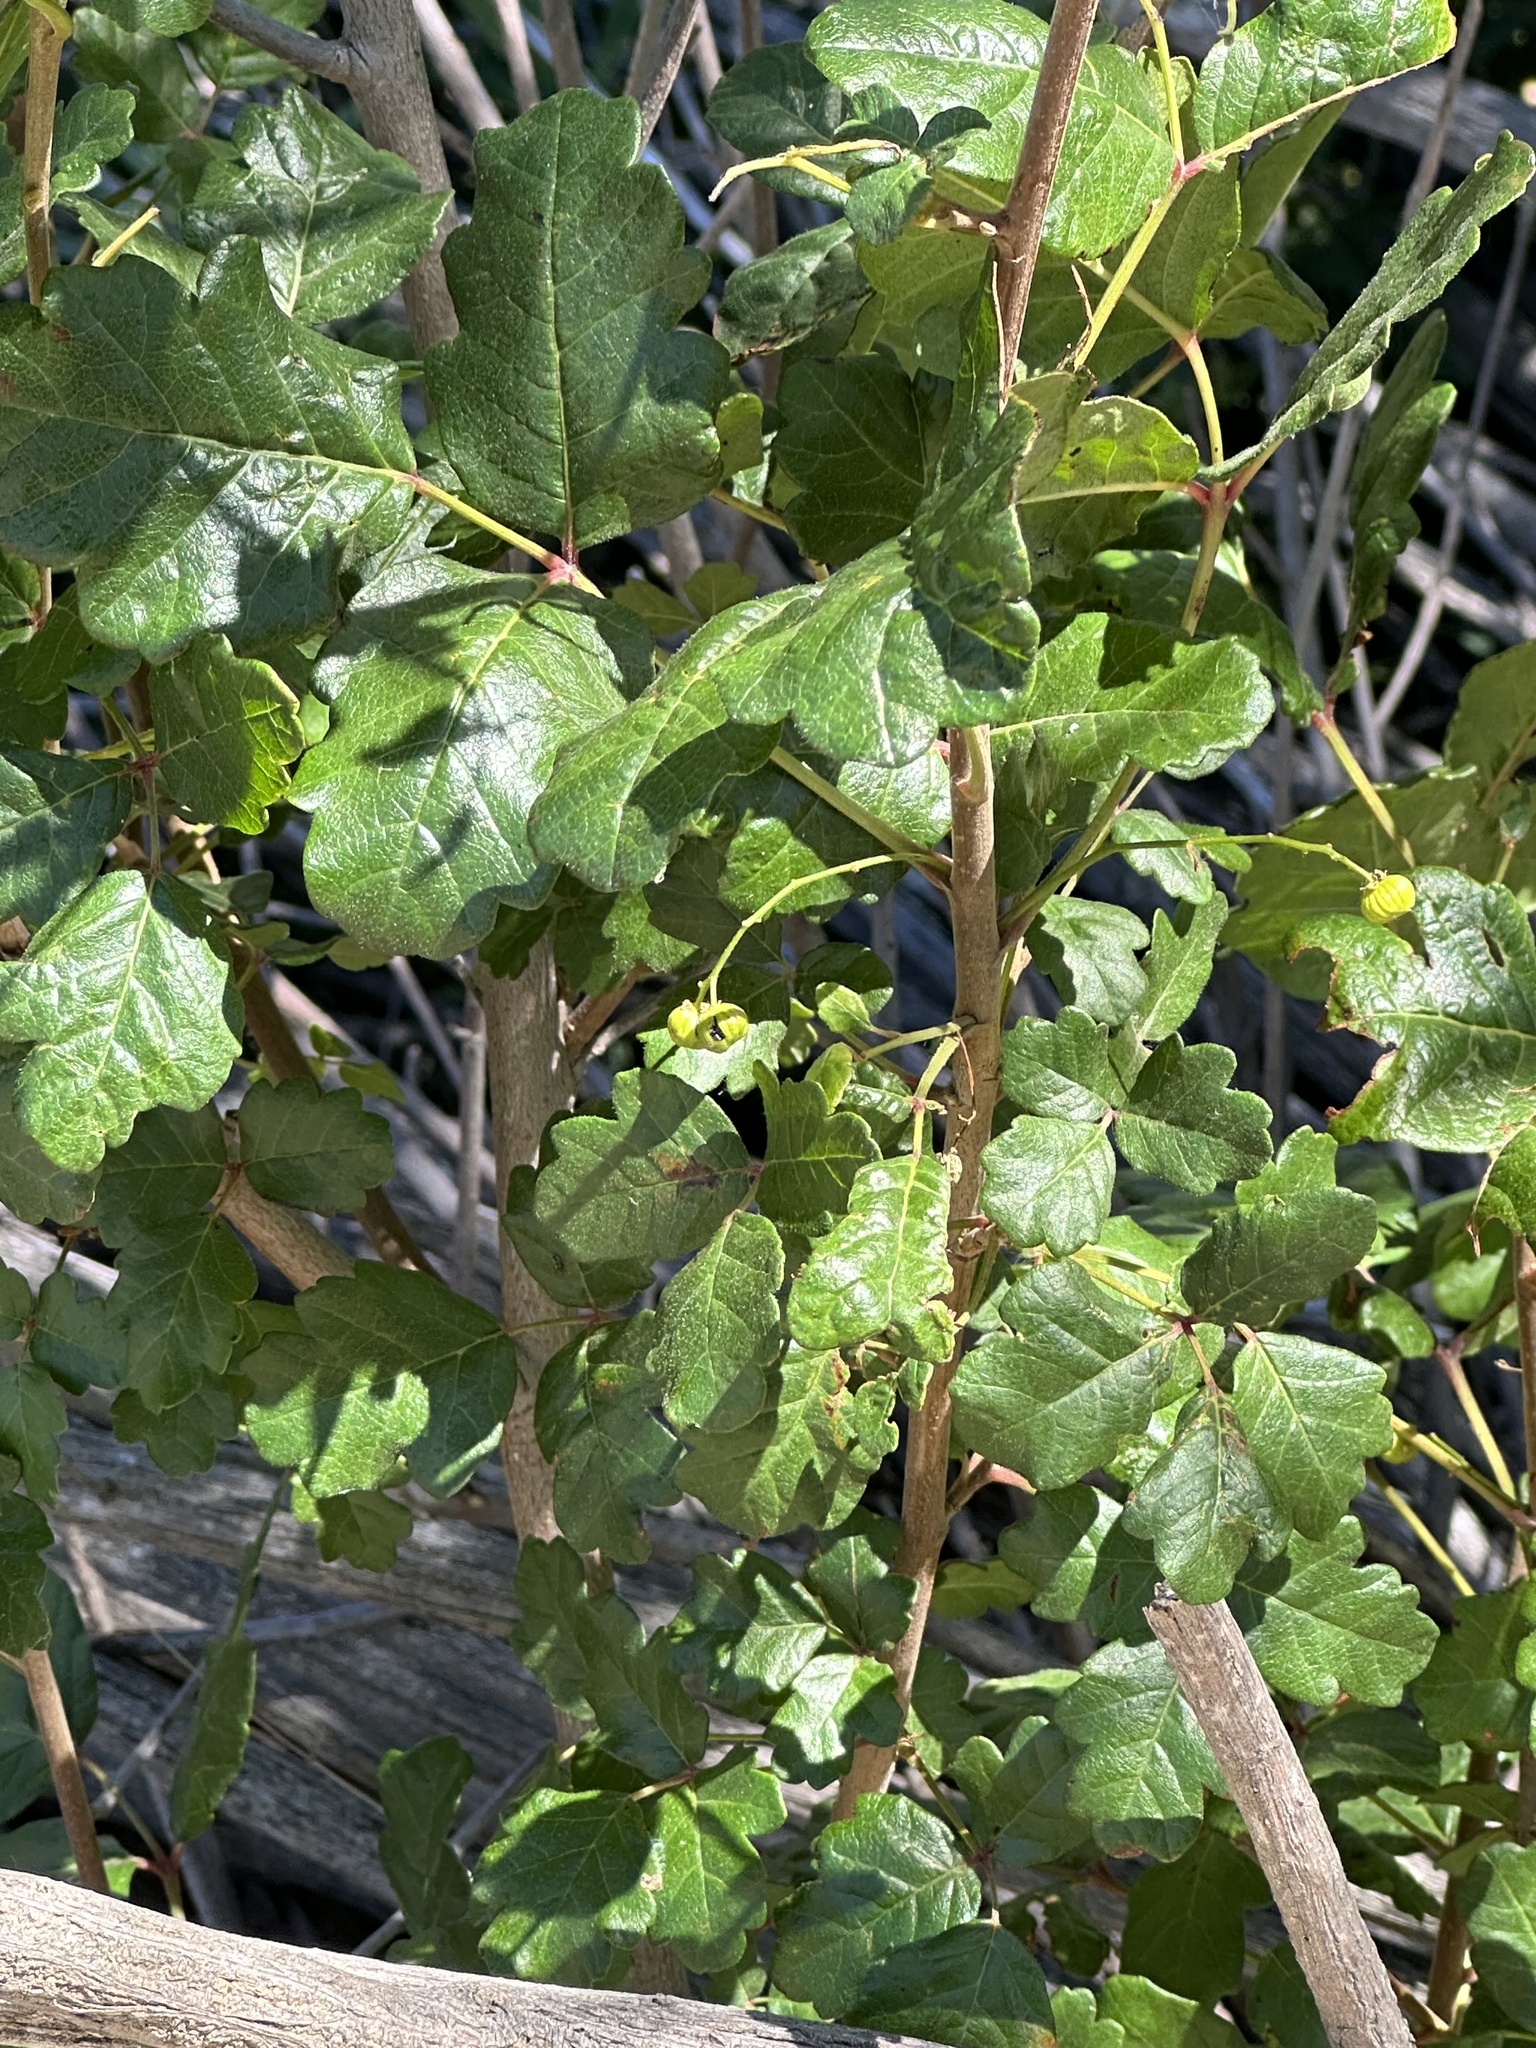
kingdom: Plantae
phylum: Tracheophyta
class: Magnoliopsida
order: Sapindales
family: Anacardiaceae
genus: Toxicodendron
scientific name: Toxicodendron diversilobum
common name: Pacific poison-oak
